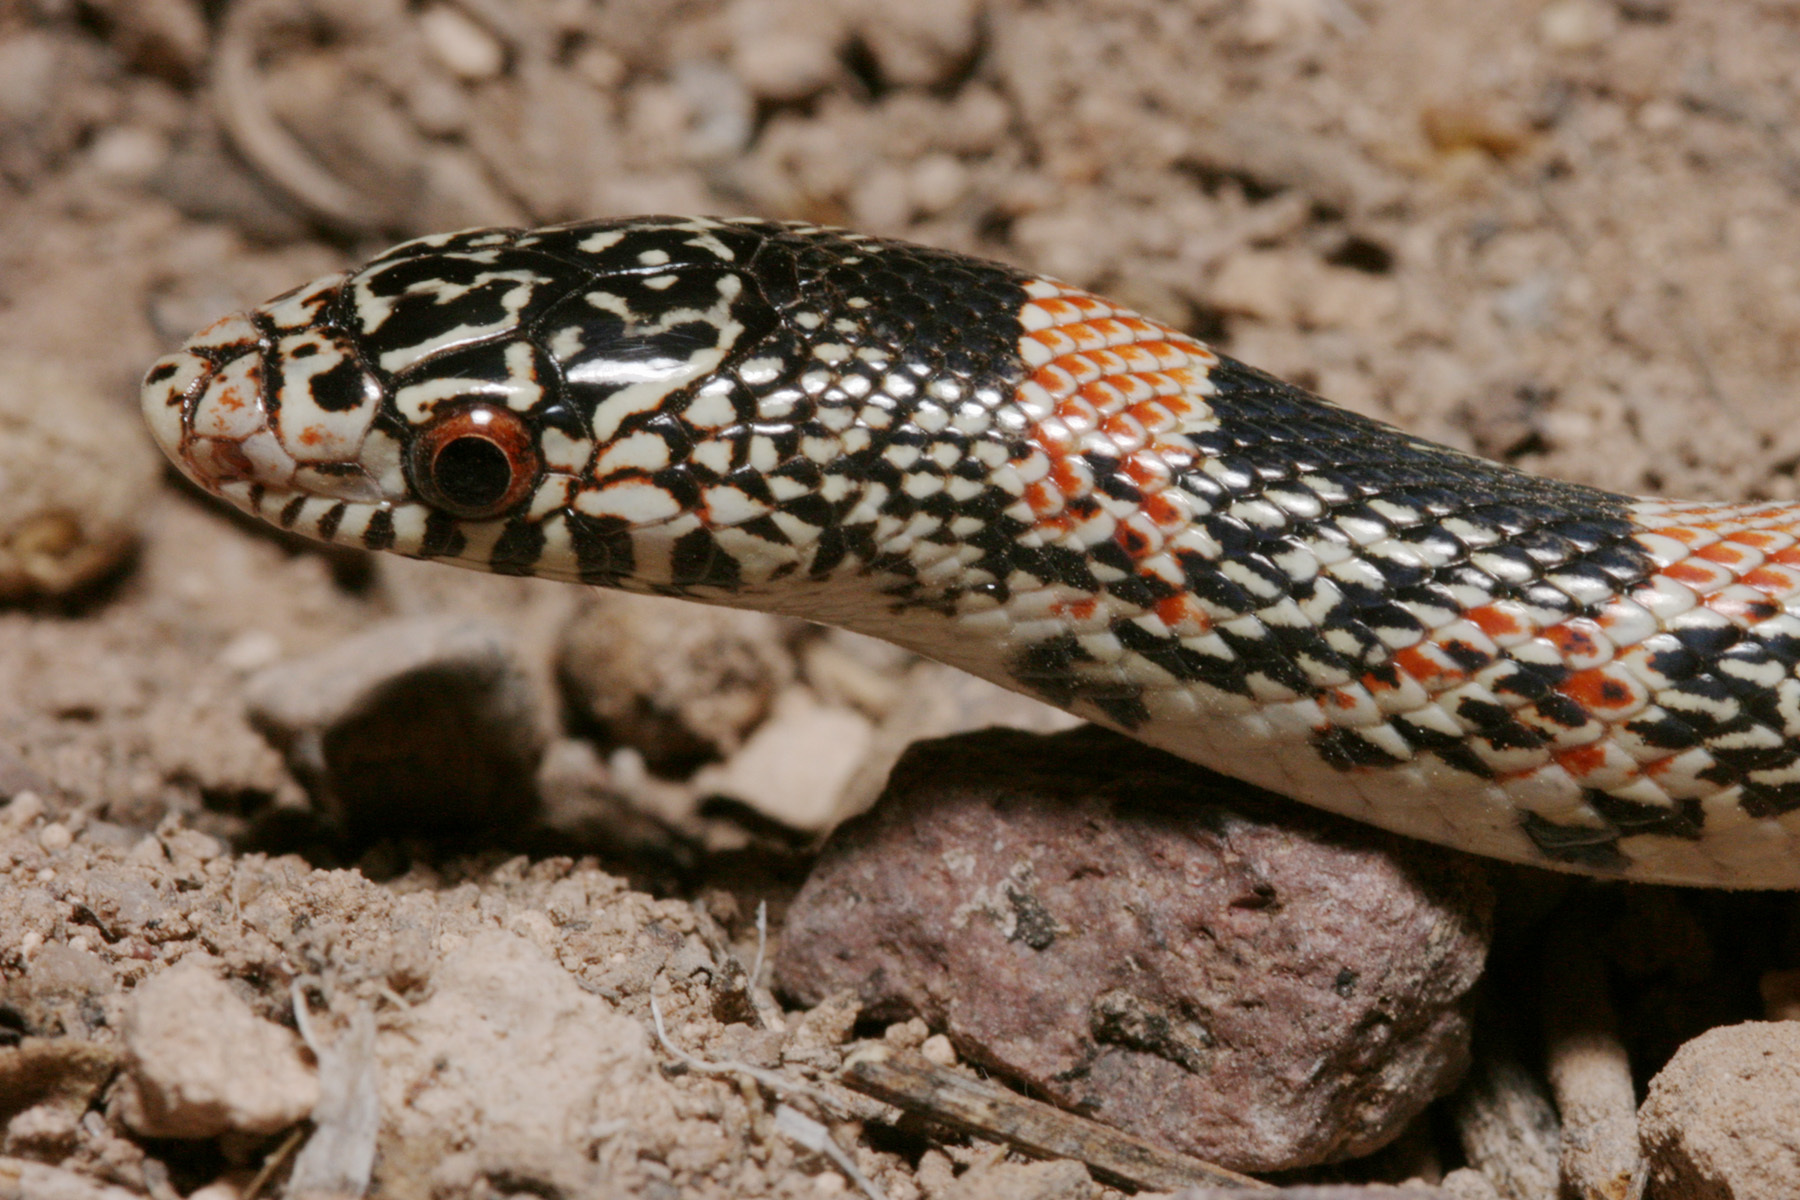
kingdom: Animalia
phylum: Chordata
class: Squamata
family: Colubridae
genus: Rhinocheilus
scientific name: Rhinocheilus lecontei
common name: Longnose snake
